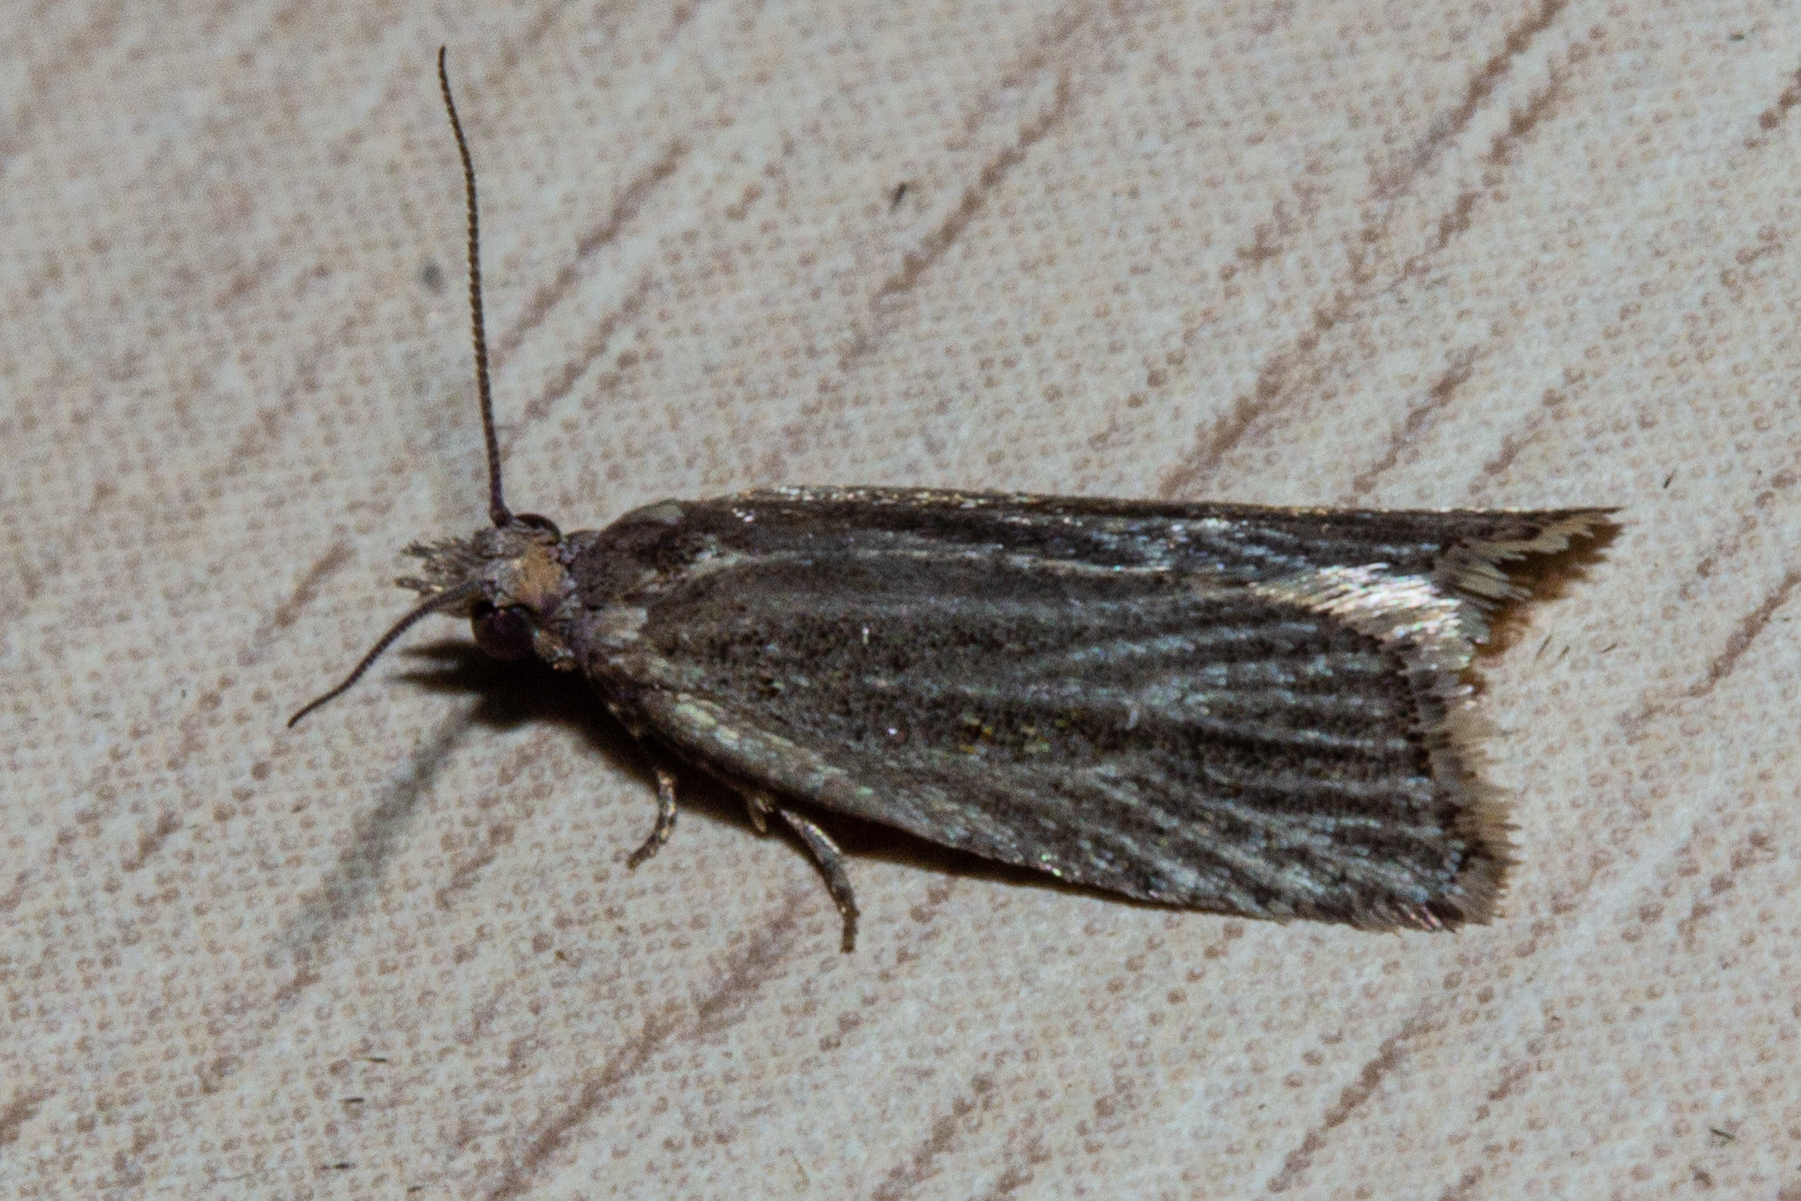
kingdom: Animalia
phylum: Arthropoda
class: Insecta
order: Lepidoptera
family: Tortricidae
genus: Capua
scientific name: Capua semiferana
